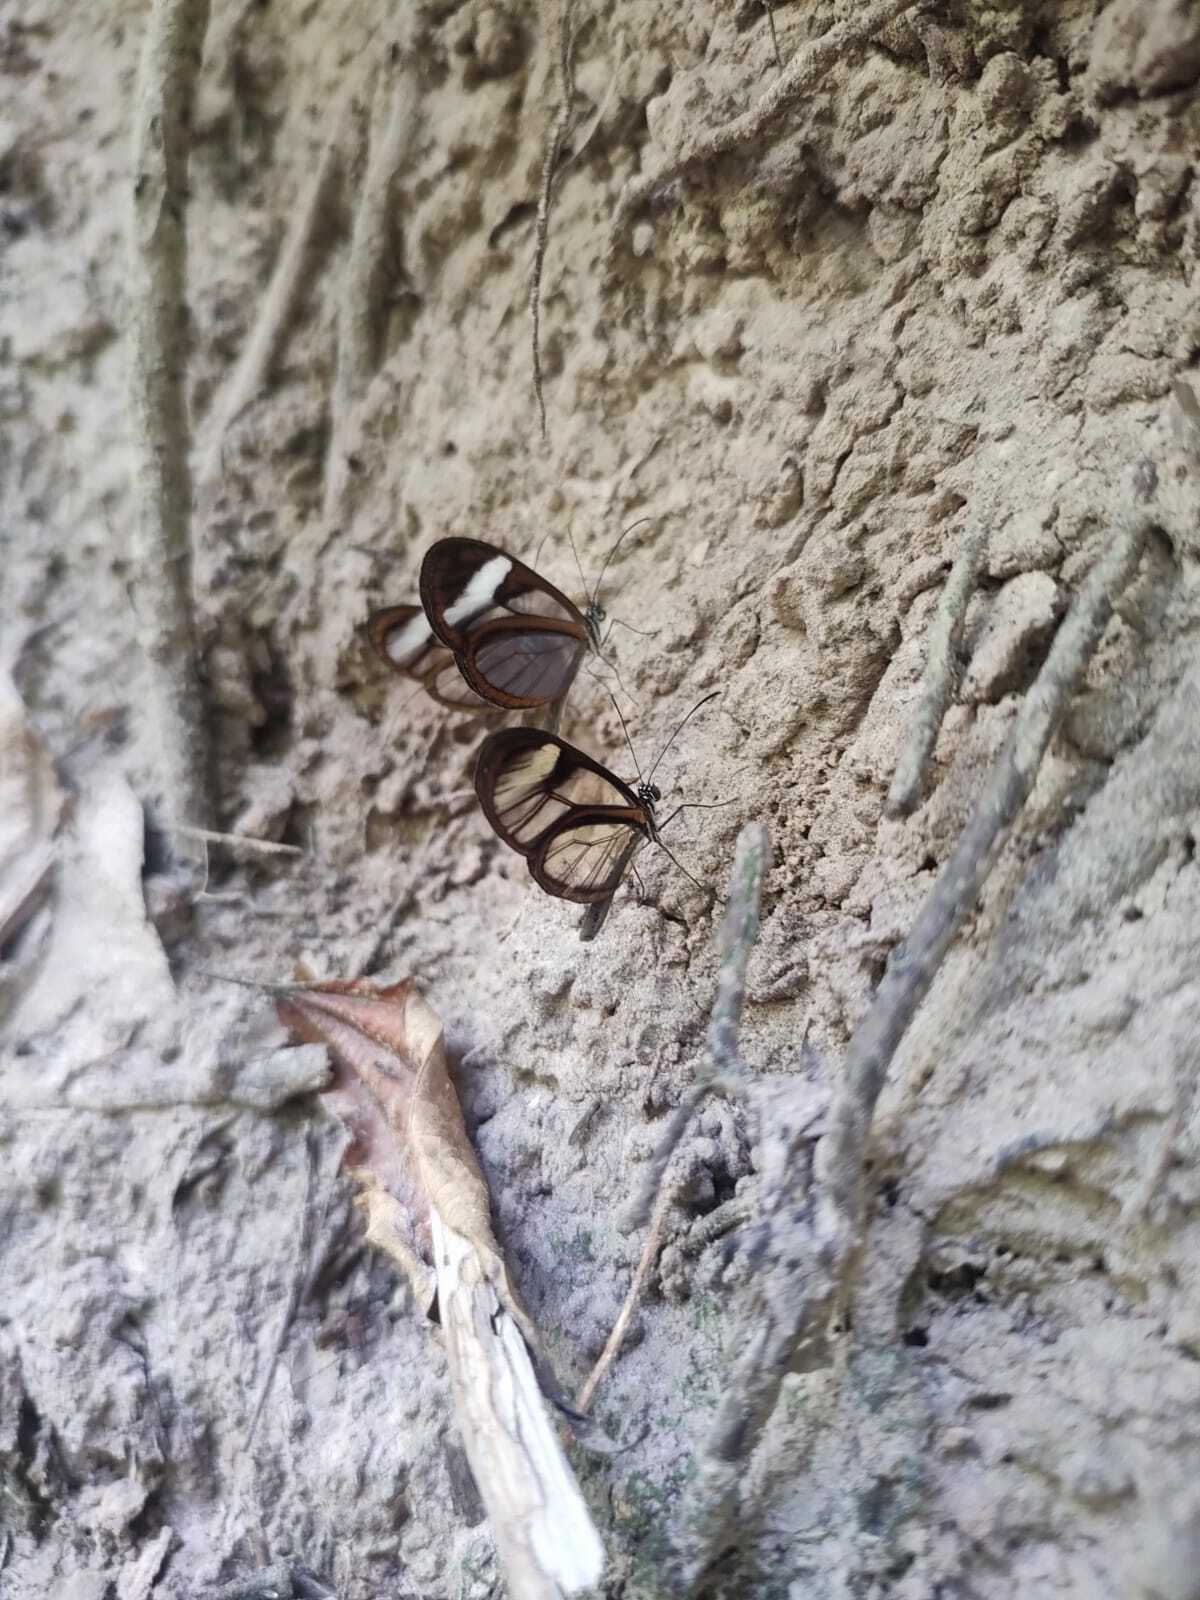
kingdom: Animalia
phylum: Arthropoda
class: Insecta
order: Lepidoptera
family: Nymphalidae
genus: Mcclungia
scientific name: Mcclungia cymo
